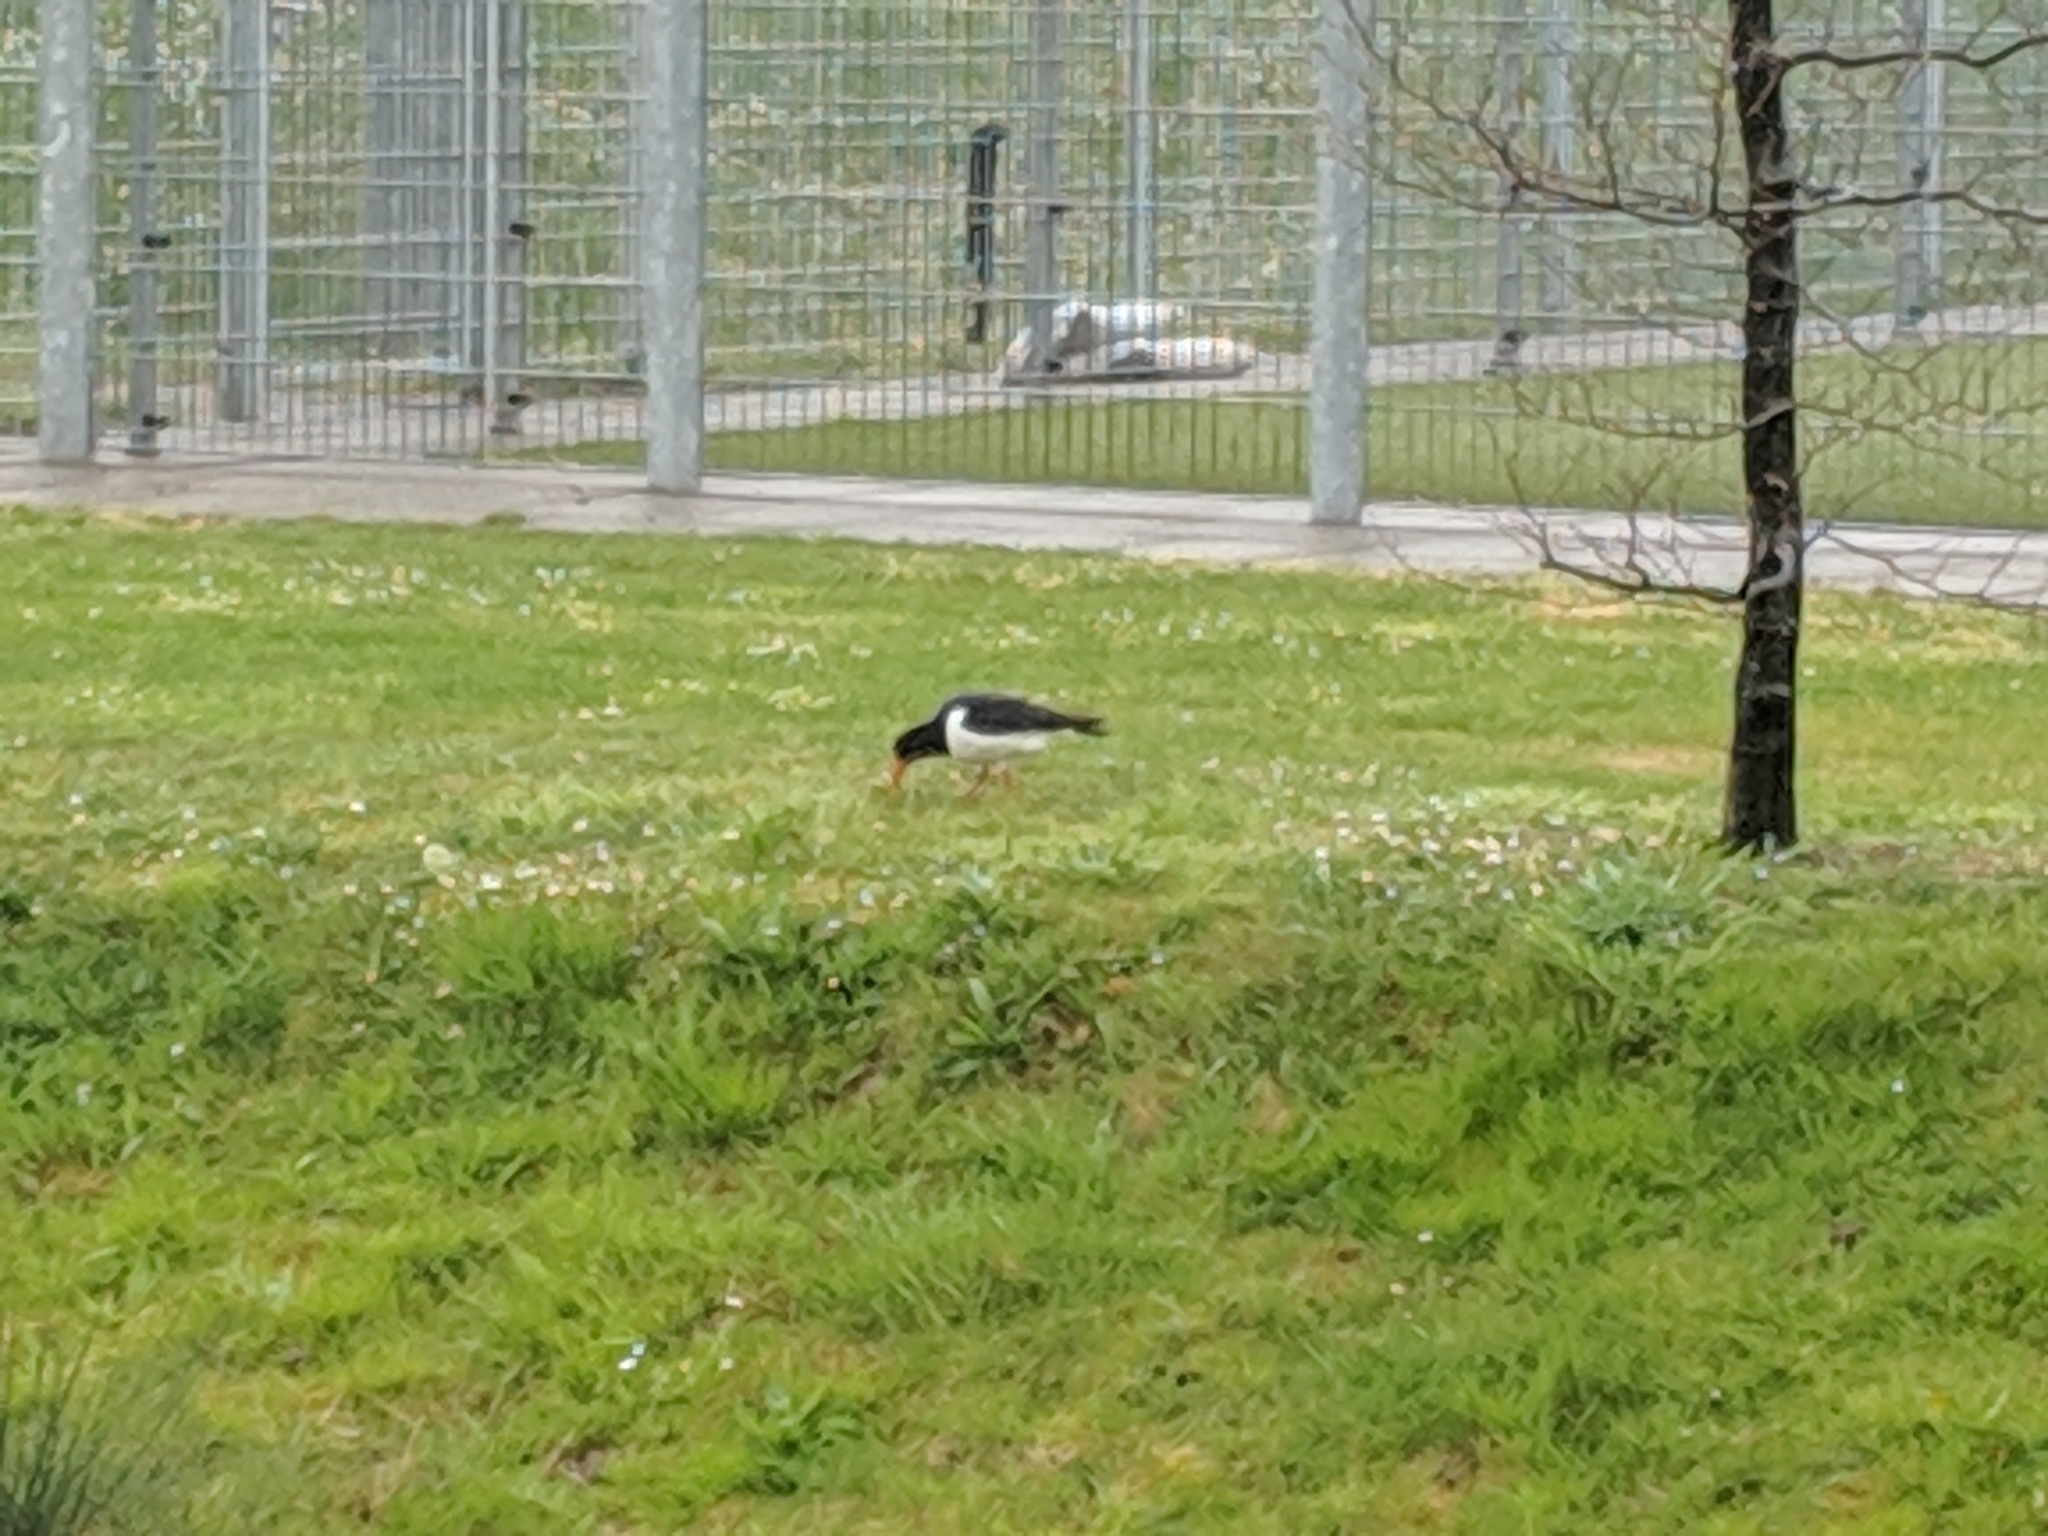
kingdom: Animalia
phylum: Chordata
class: Aves
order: Charadriiformes
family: Haematopodidae
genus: Haematopus
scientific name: Haematopus ostralegus
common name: Eurasian oystercatcher
